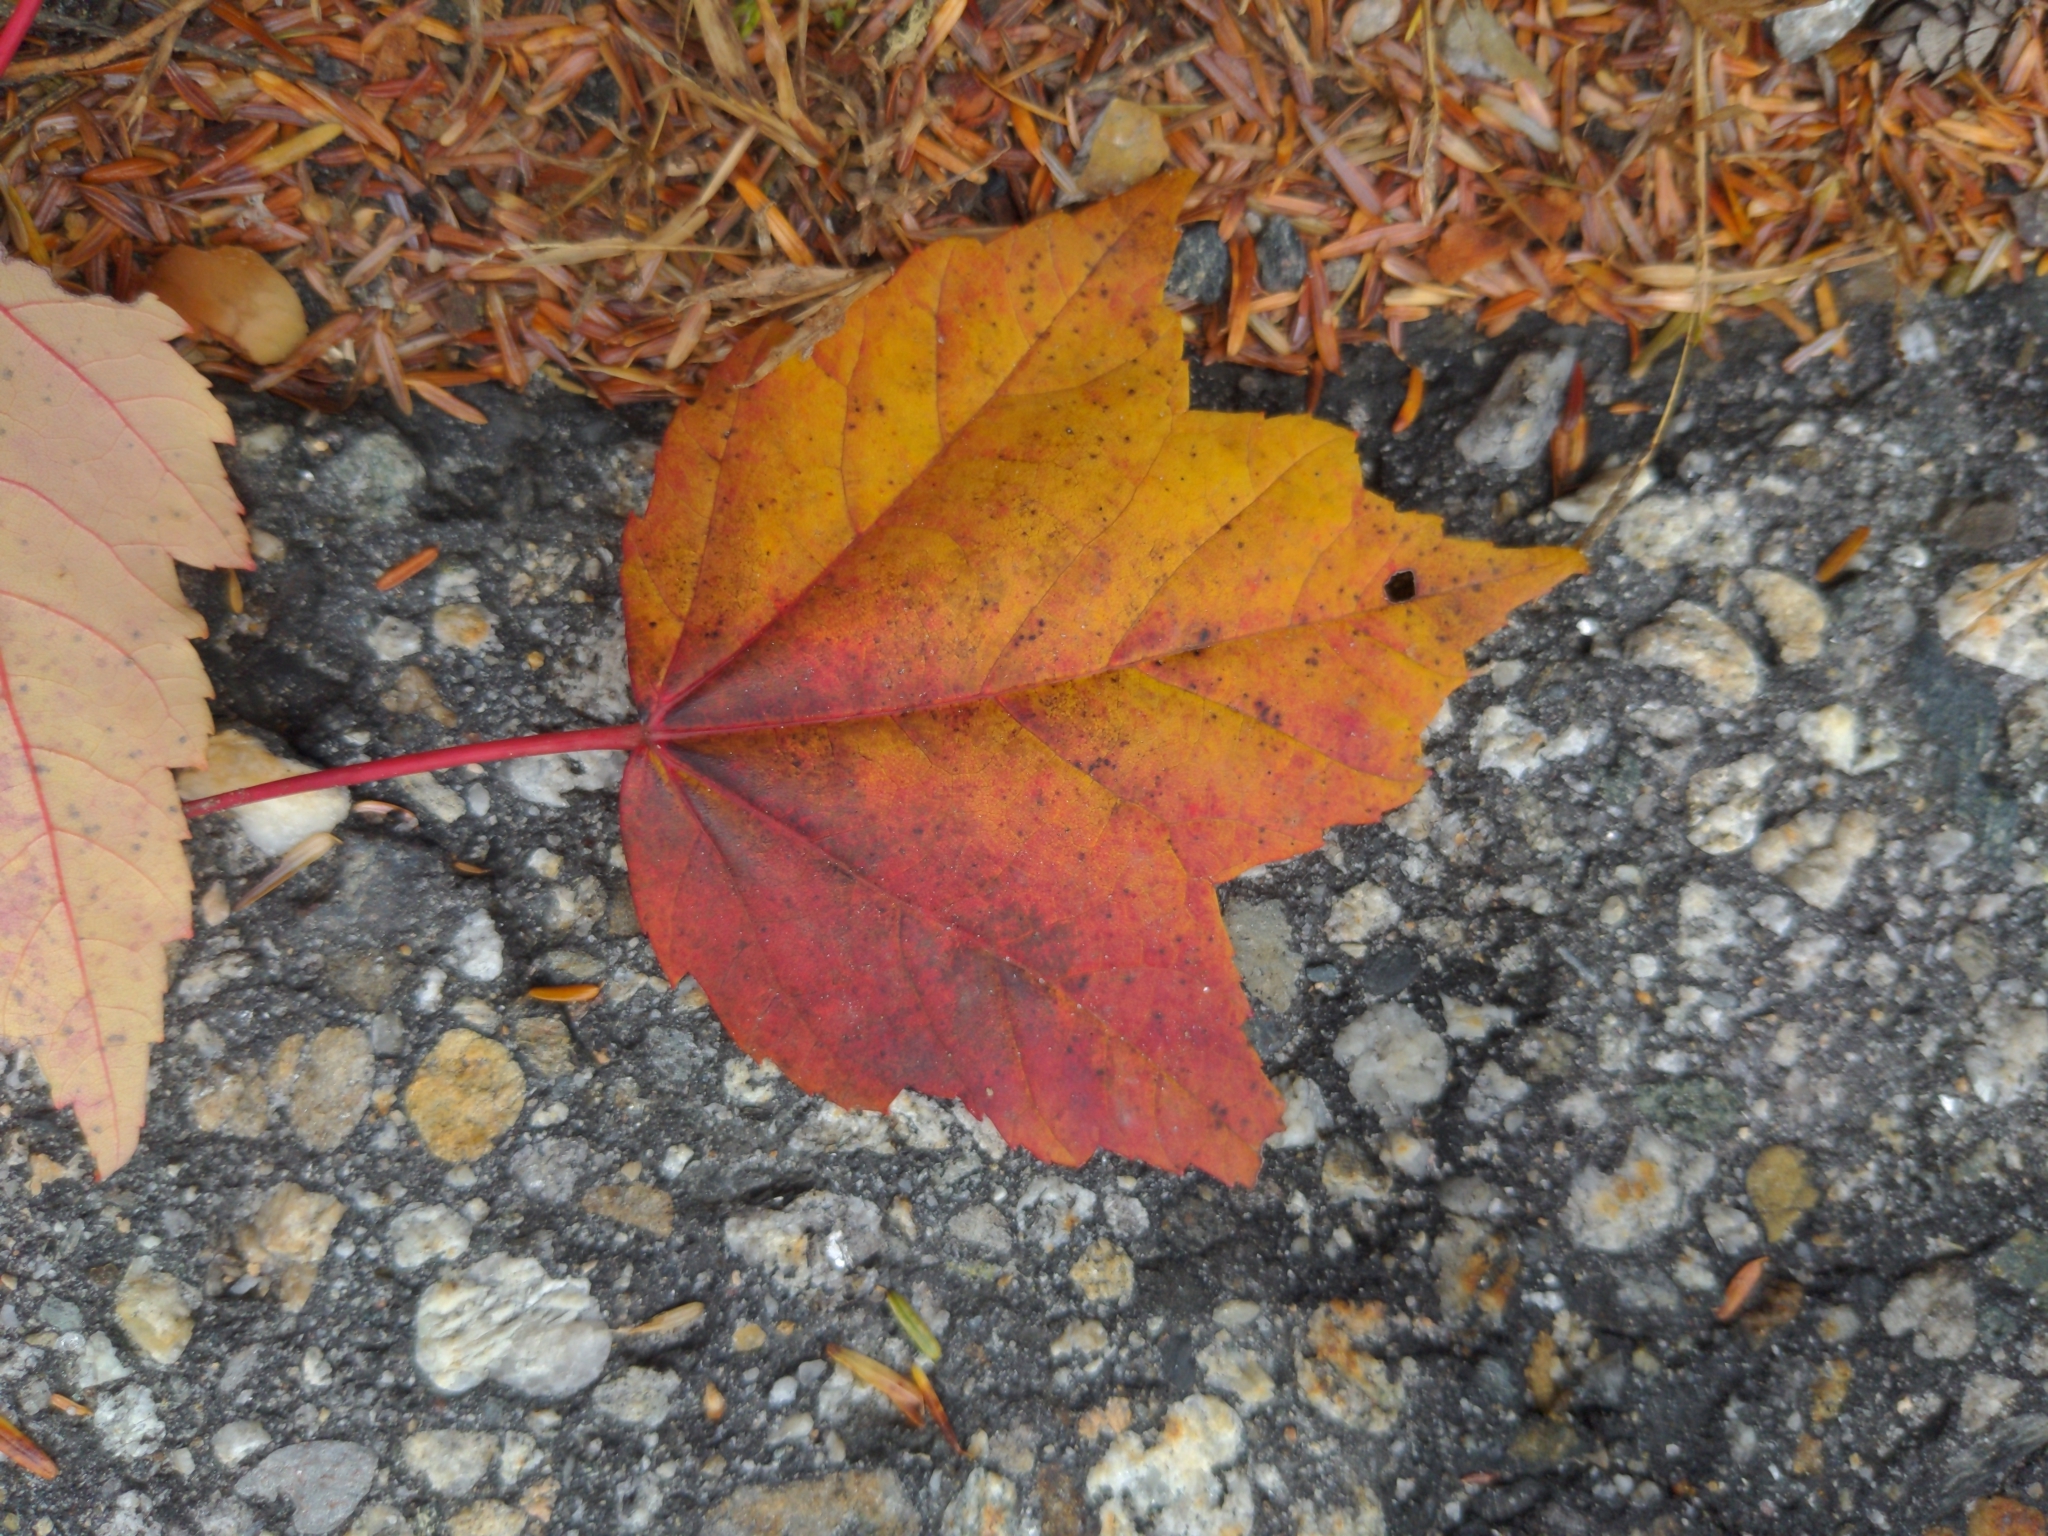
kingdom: Plantae
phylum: Tracheophyta
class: Magnoliopsida
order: Sapindales
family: Sapindaceae
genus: Acer
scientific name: Acer rubrum
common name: Red maple
